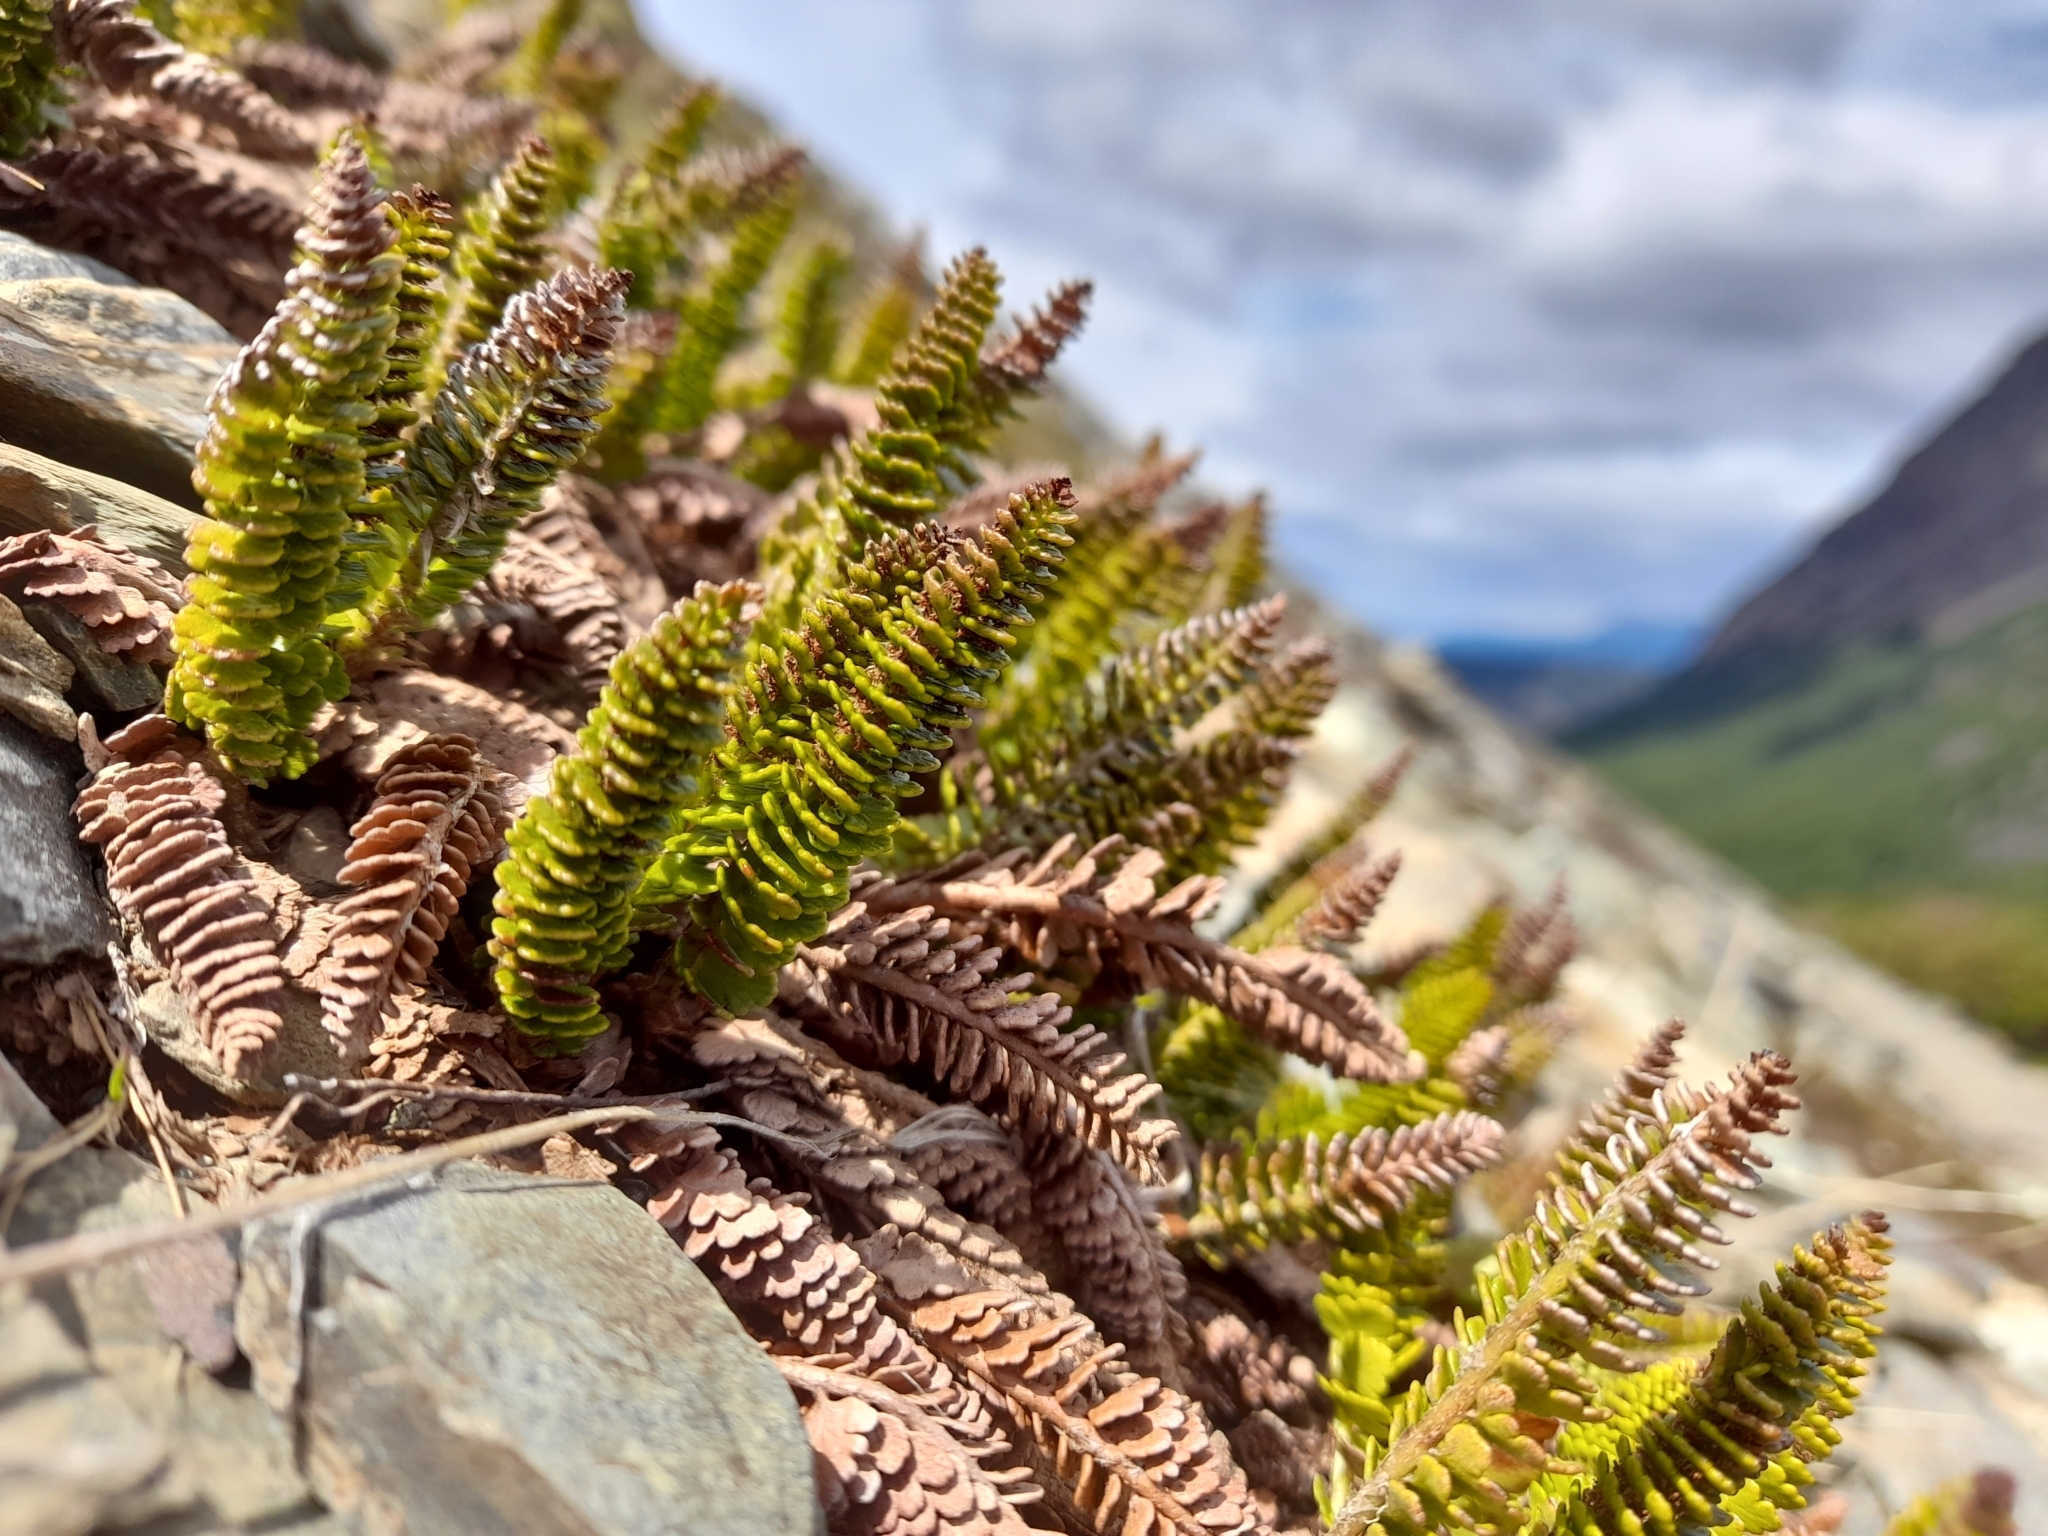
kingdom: Plantae
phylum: Tracheophyta
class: Polypodiopsida
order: Polypodiales
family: Dryopteridaceae
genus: Polystichum
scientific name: Polystichum andinum
